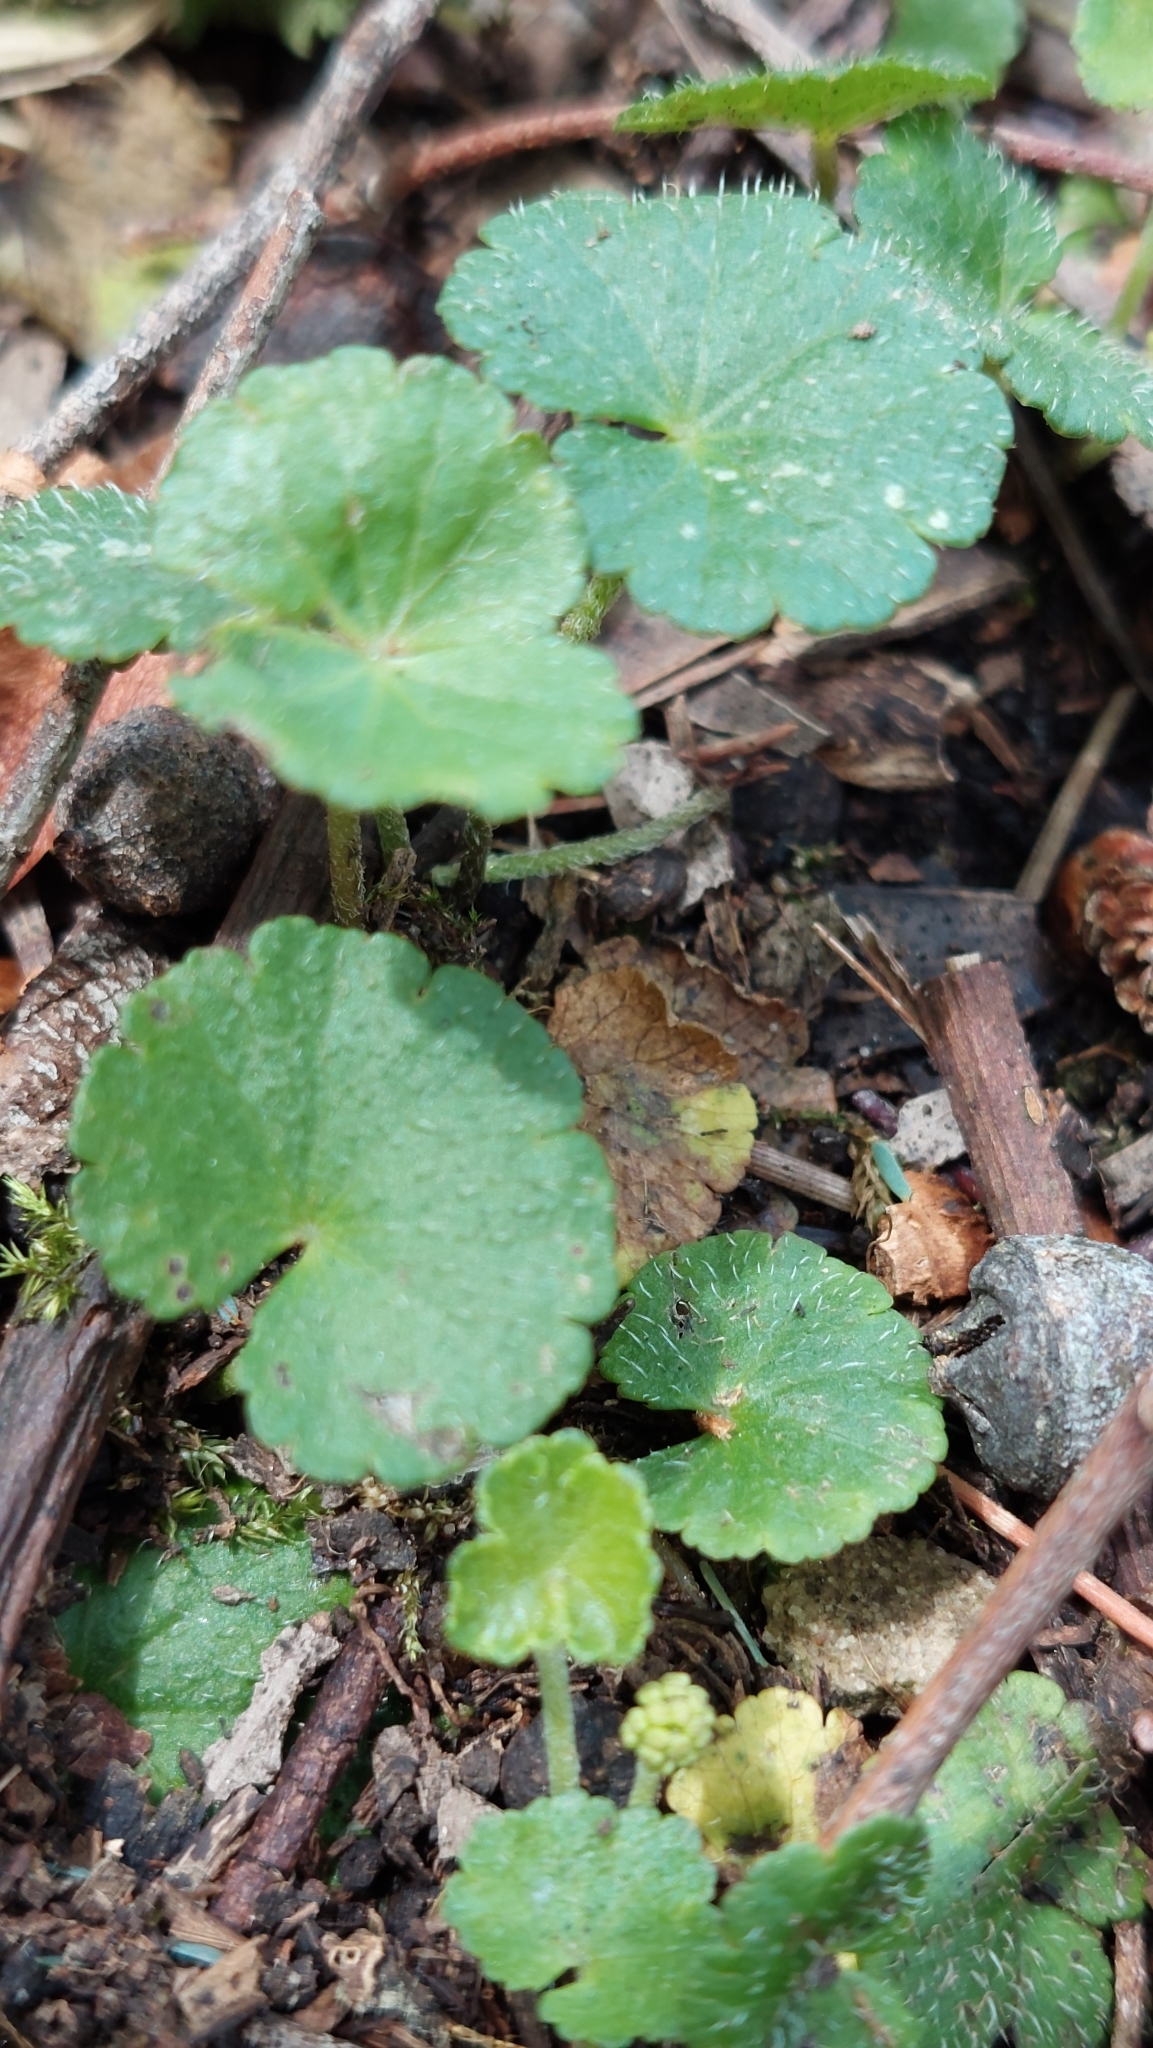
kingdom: Plantae
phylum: Tracheophyta
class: Magnoliopsida
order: Apiales
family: Araliaceae
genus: Hydrocotyle
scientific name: Hydrocotyle bonplandii
